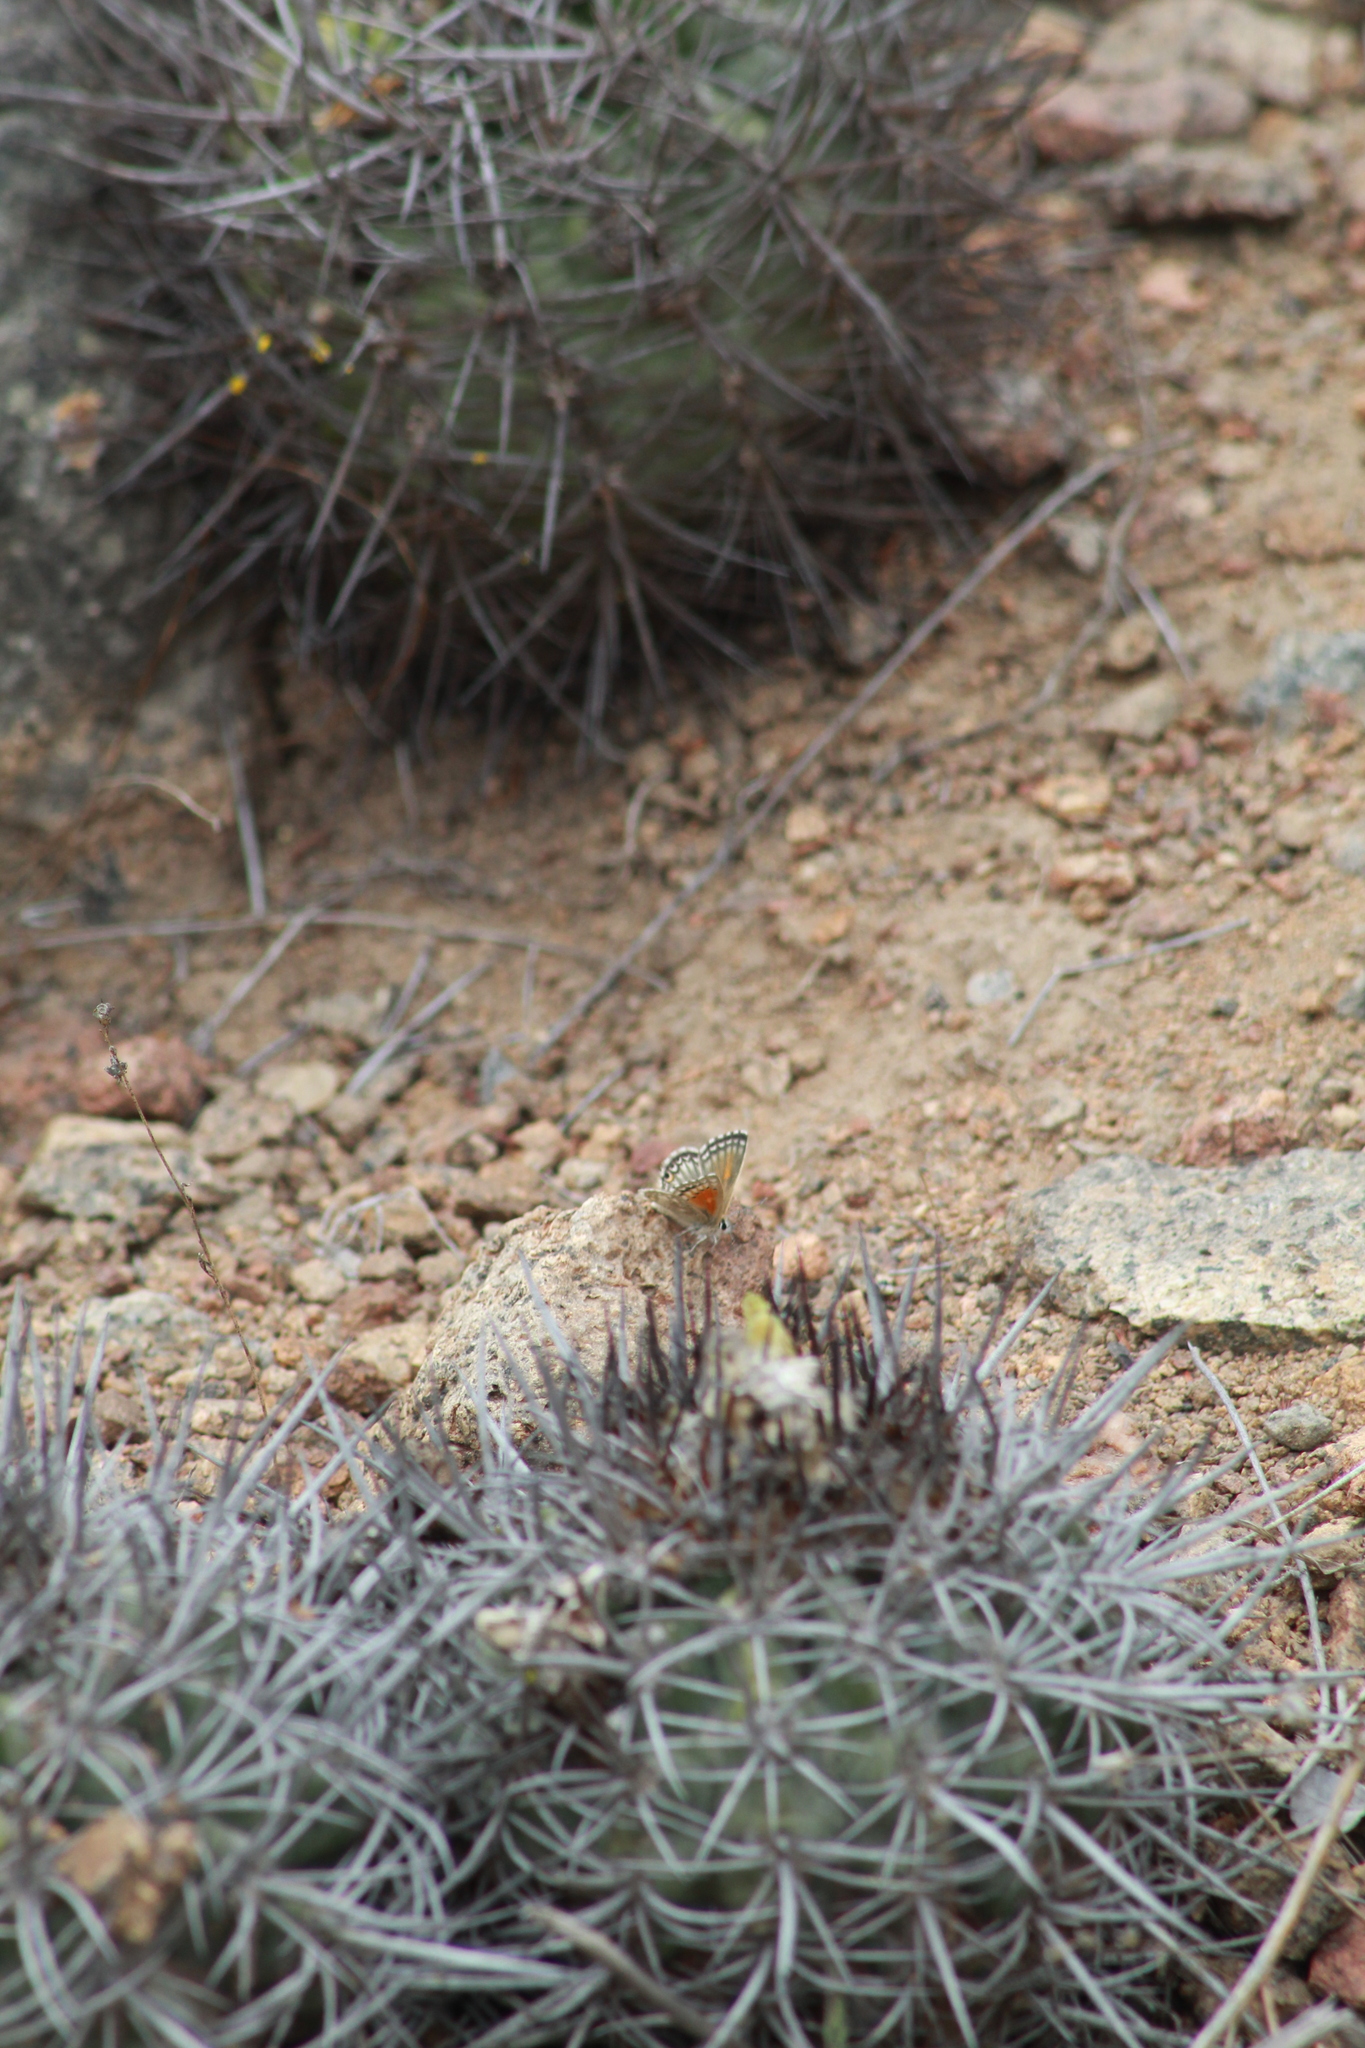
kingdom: Animalia
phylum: Arthropoda
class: Insecta
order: Lepidoptera
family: Lycaenidae
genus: Pseudolucia
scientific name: Pseudolucia chilensis
